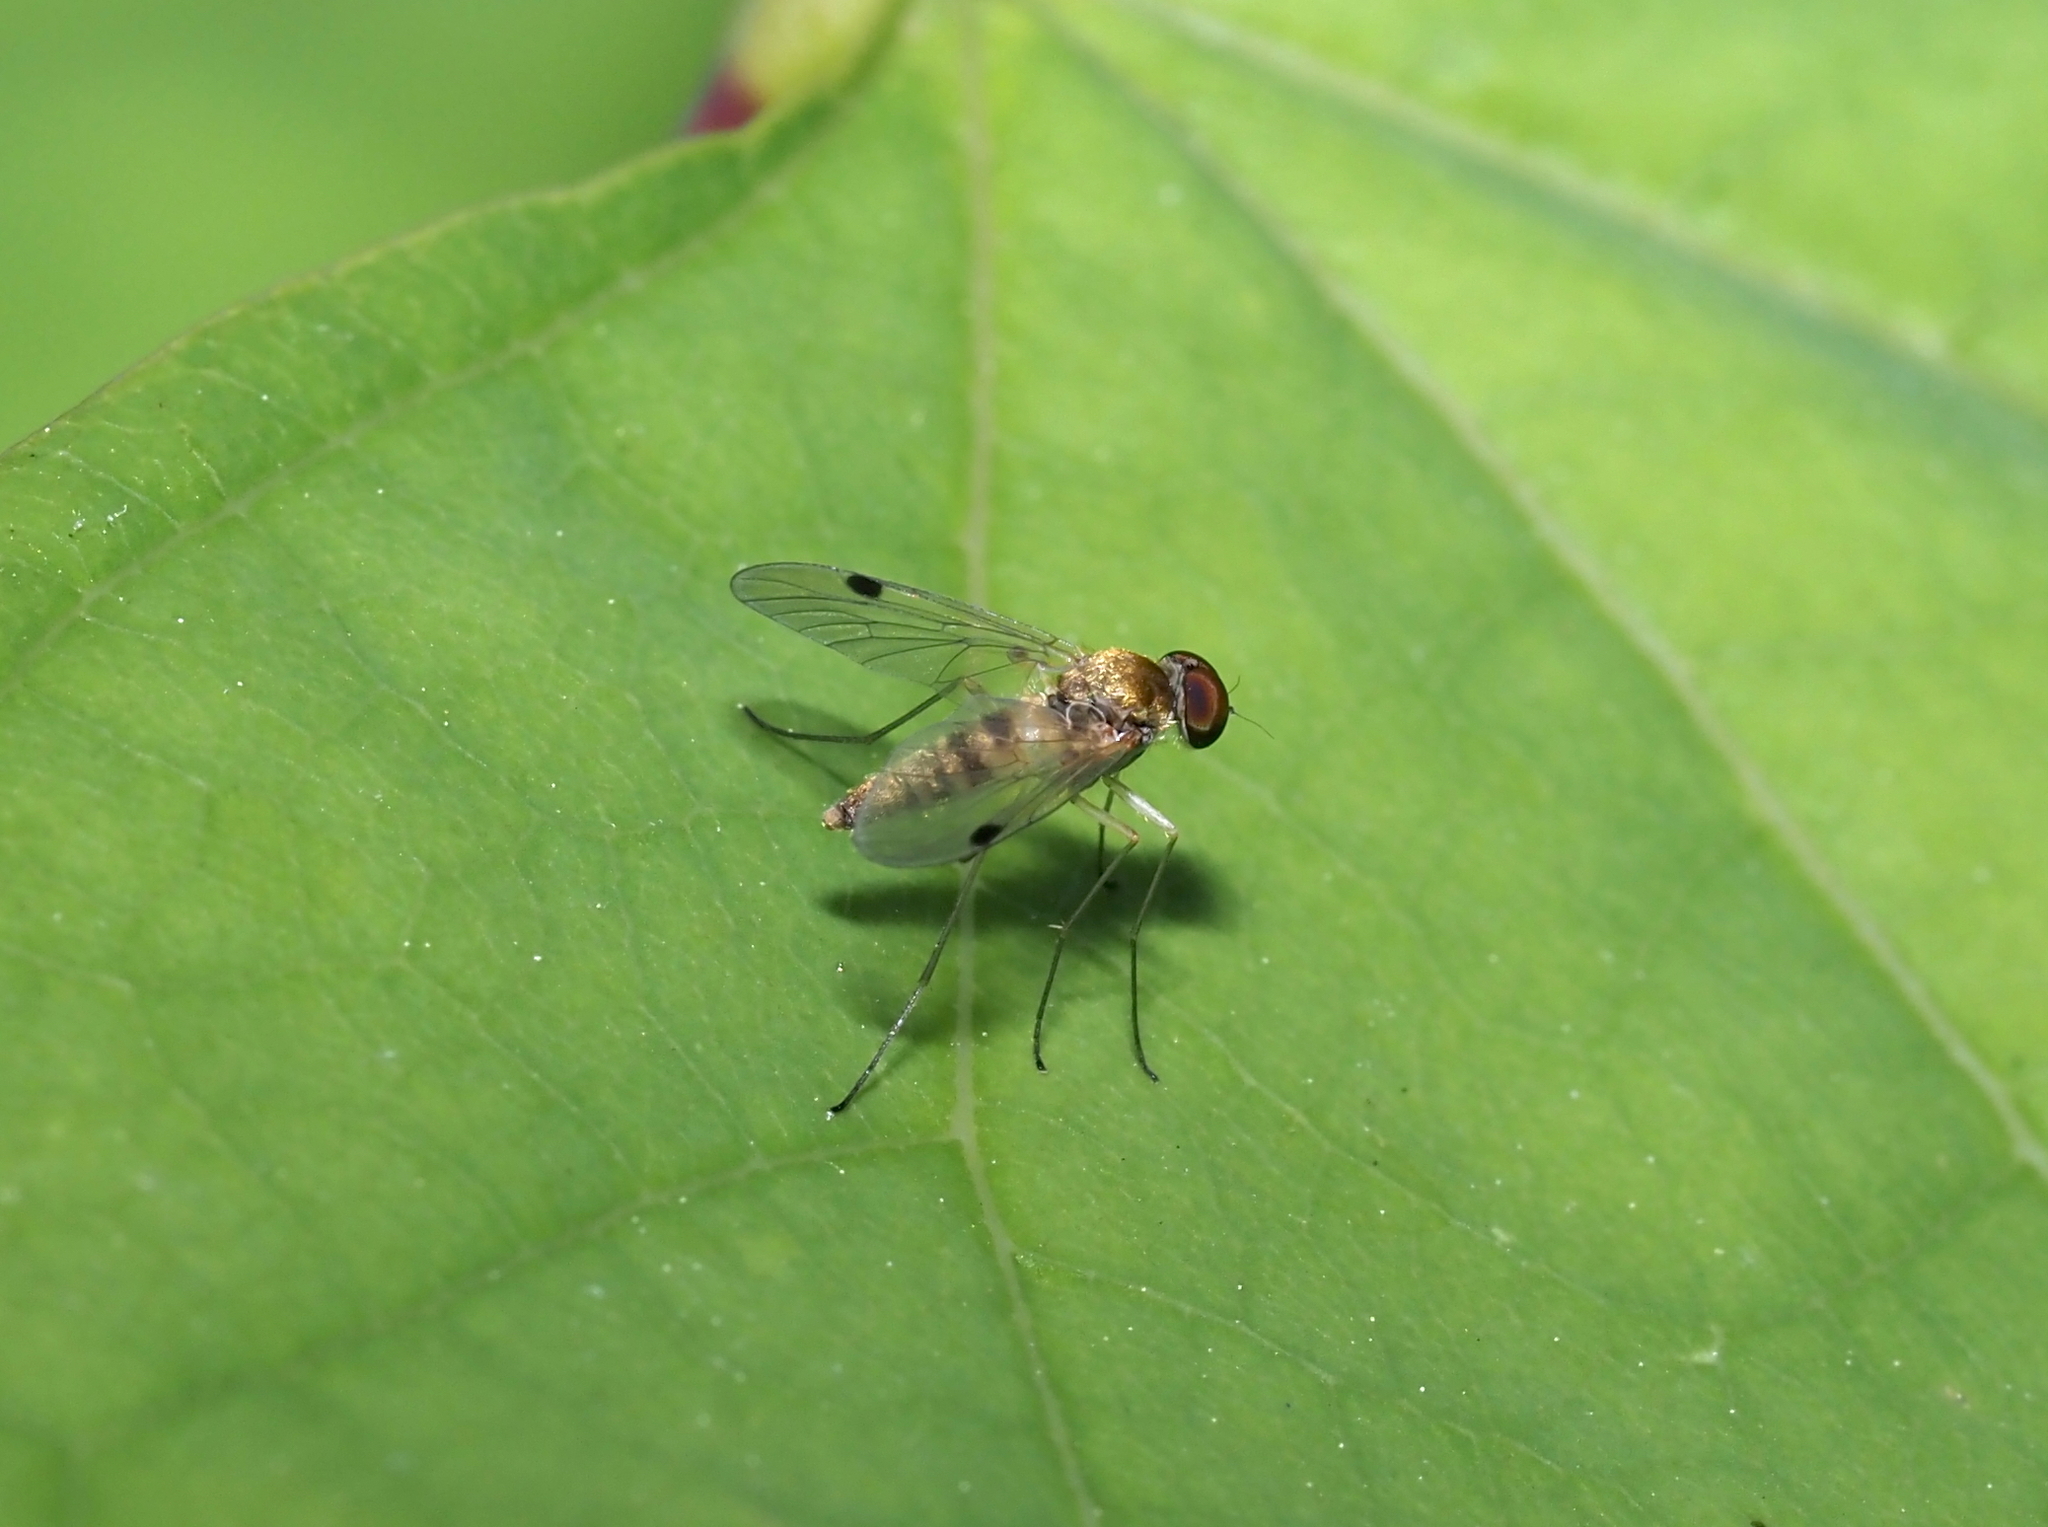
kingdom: Animalia
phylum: Arthropoda
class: Insecta
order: Diptera
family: Rhagionidae
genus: Chrysopilus
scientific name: Chrysopilus modestus
